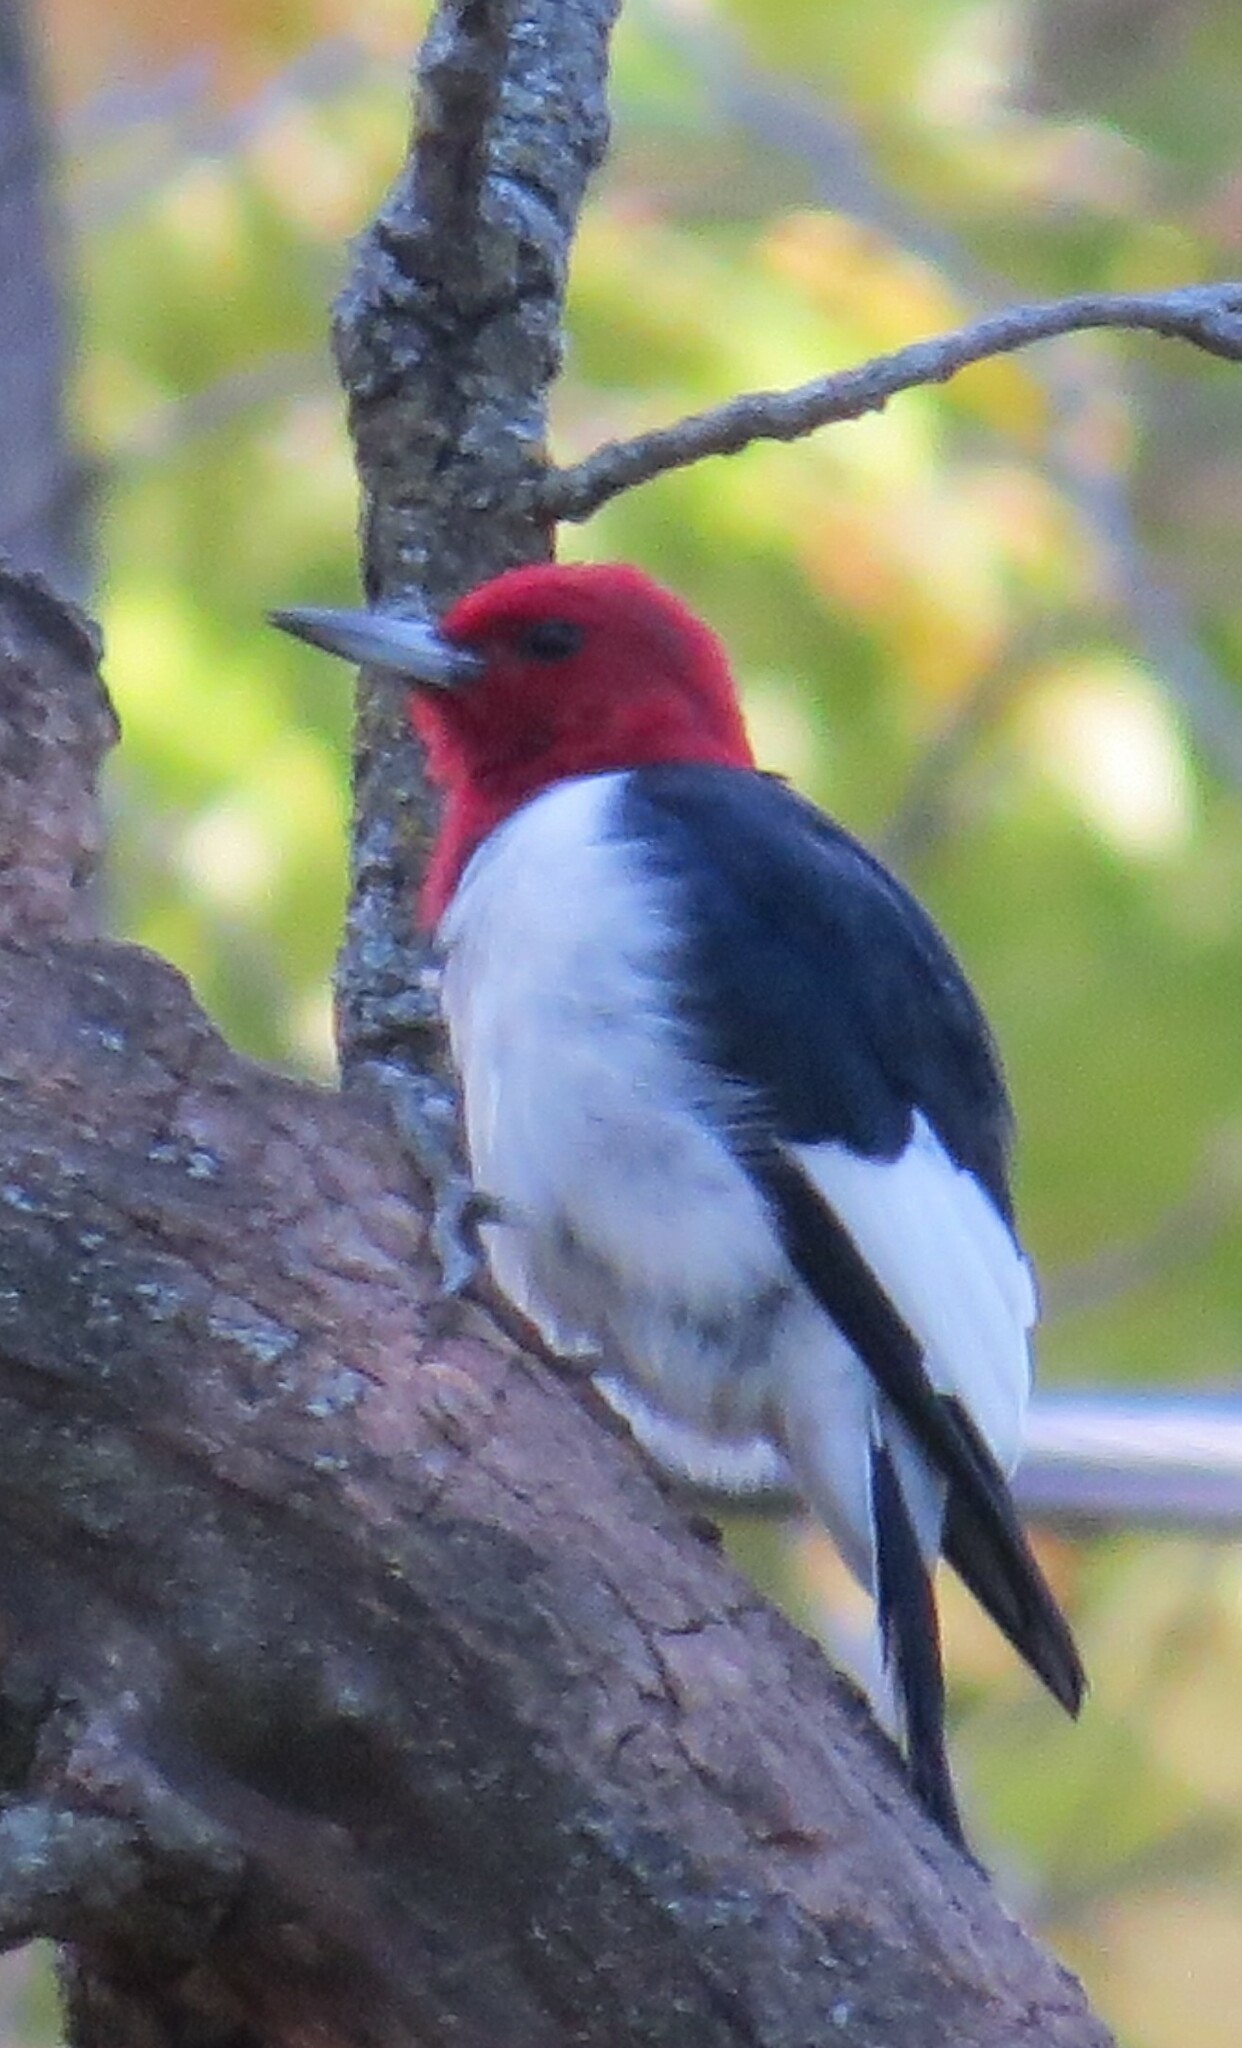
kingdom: Animalia
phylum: Chordata
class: Aves
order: Piciformes
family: Picidae
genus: Melanerpes
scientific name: Melanerpes erythrocephalus
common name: Red-headed woodpecker
